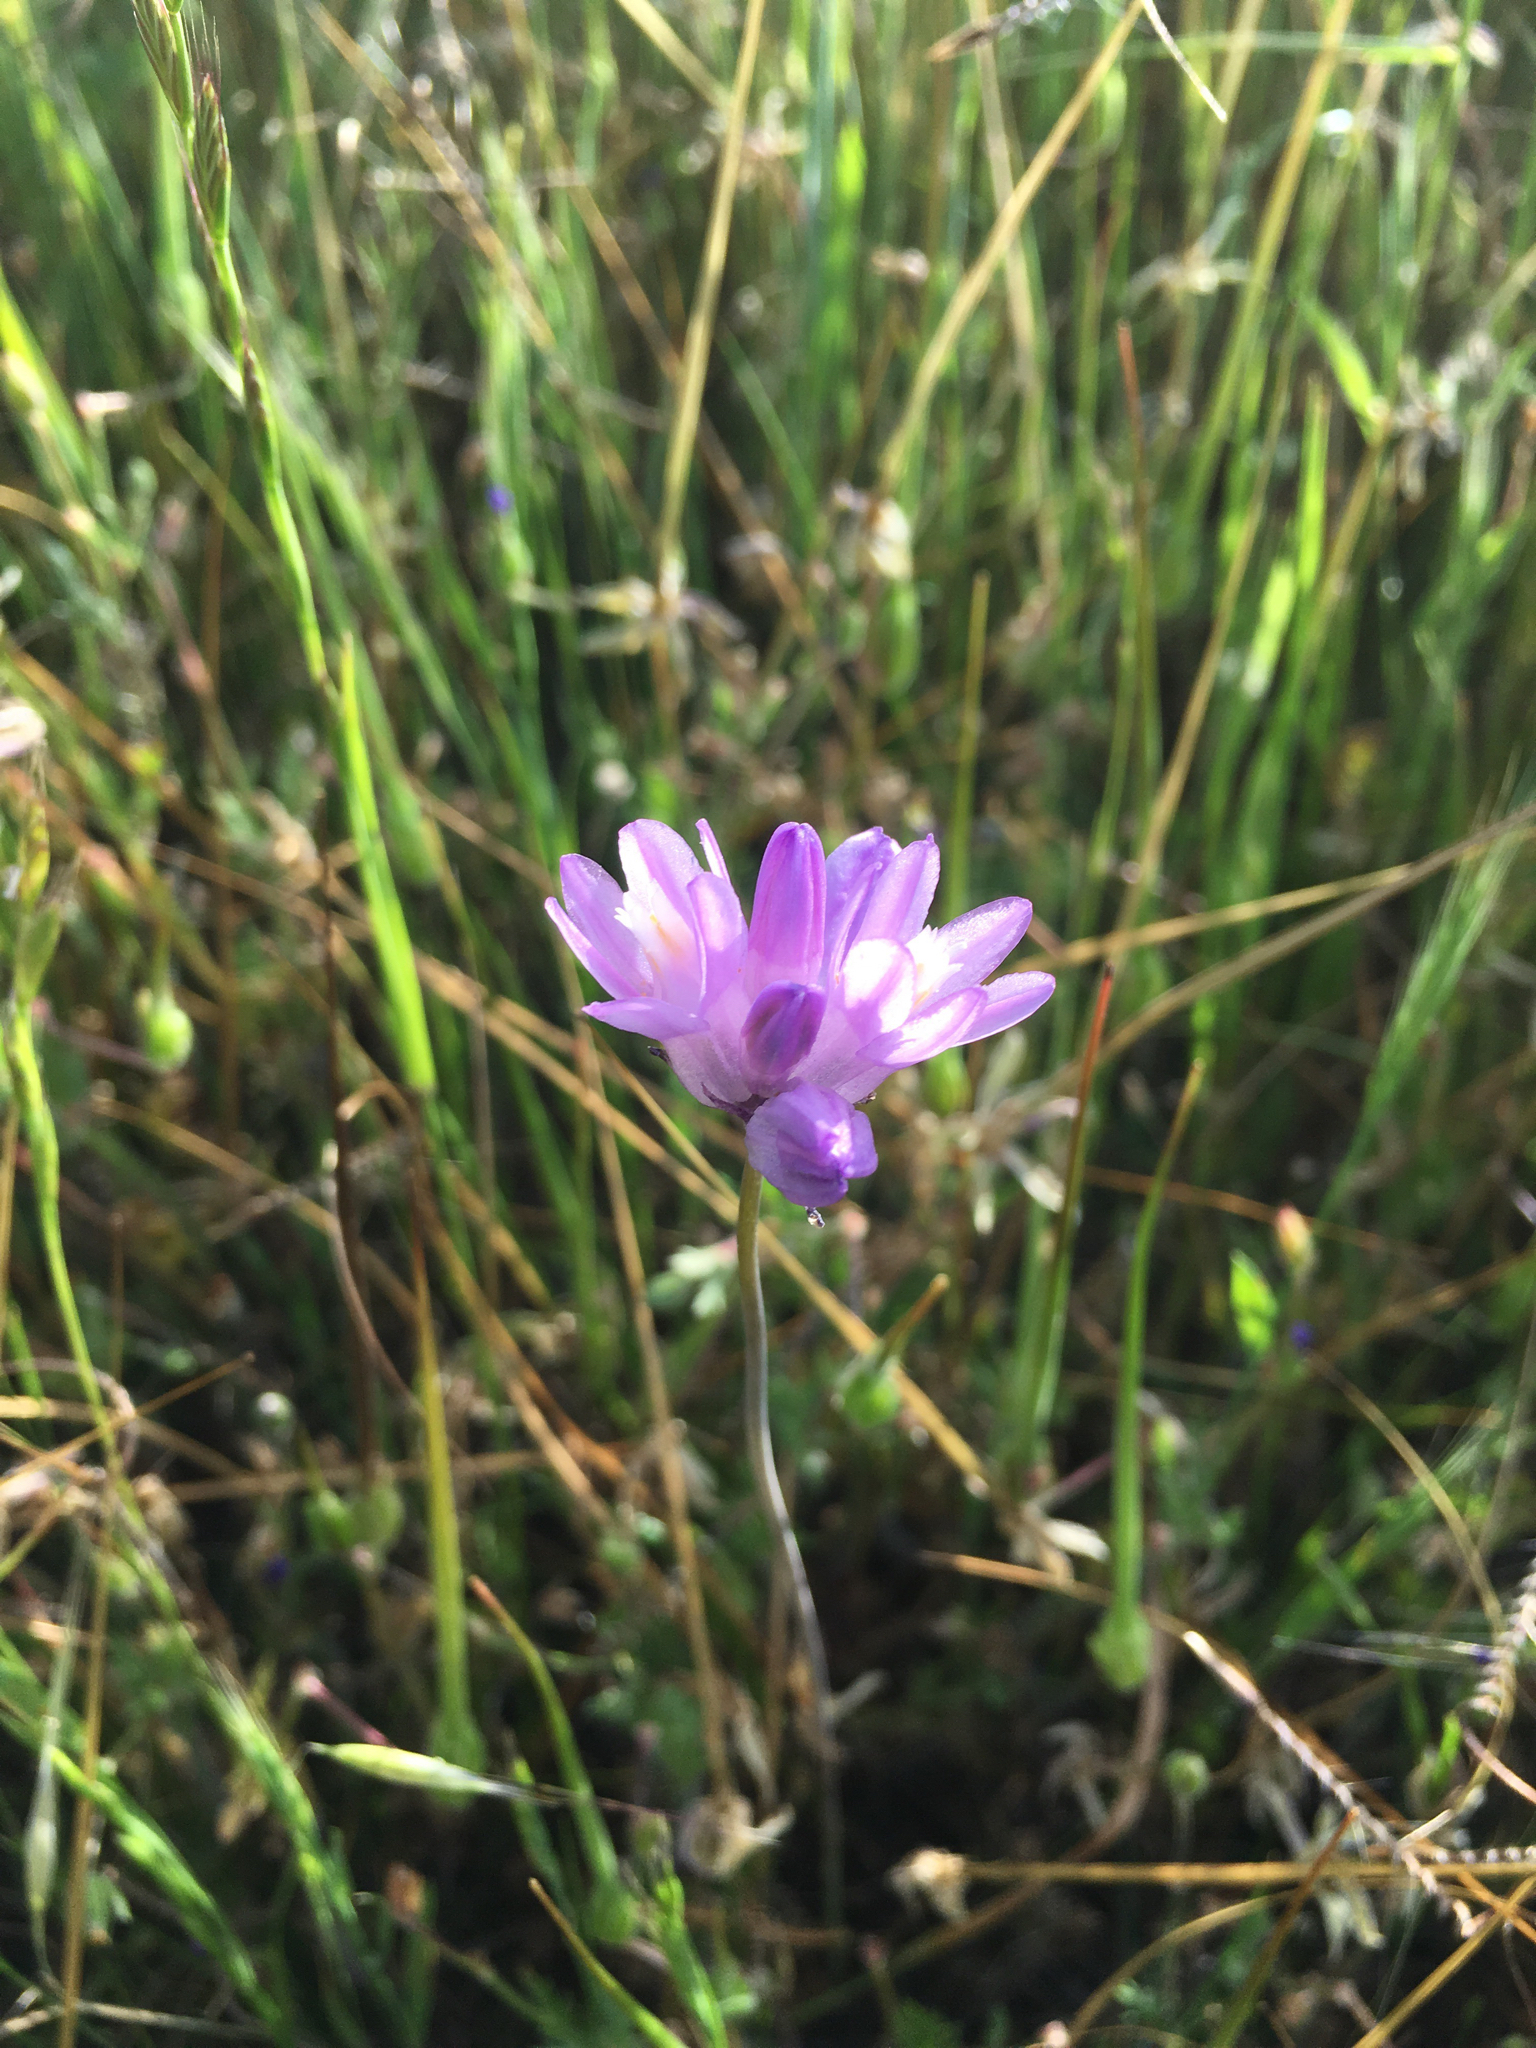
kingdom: Plantae
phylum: Tracheophyta
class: Liliopsida
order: Asparagales
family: Asparagaceae
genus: Dipterostemon
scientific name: Dipterostemon capitatus
